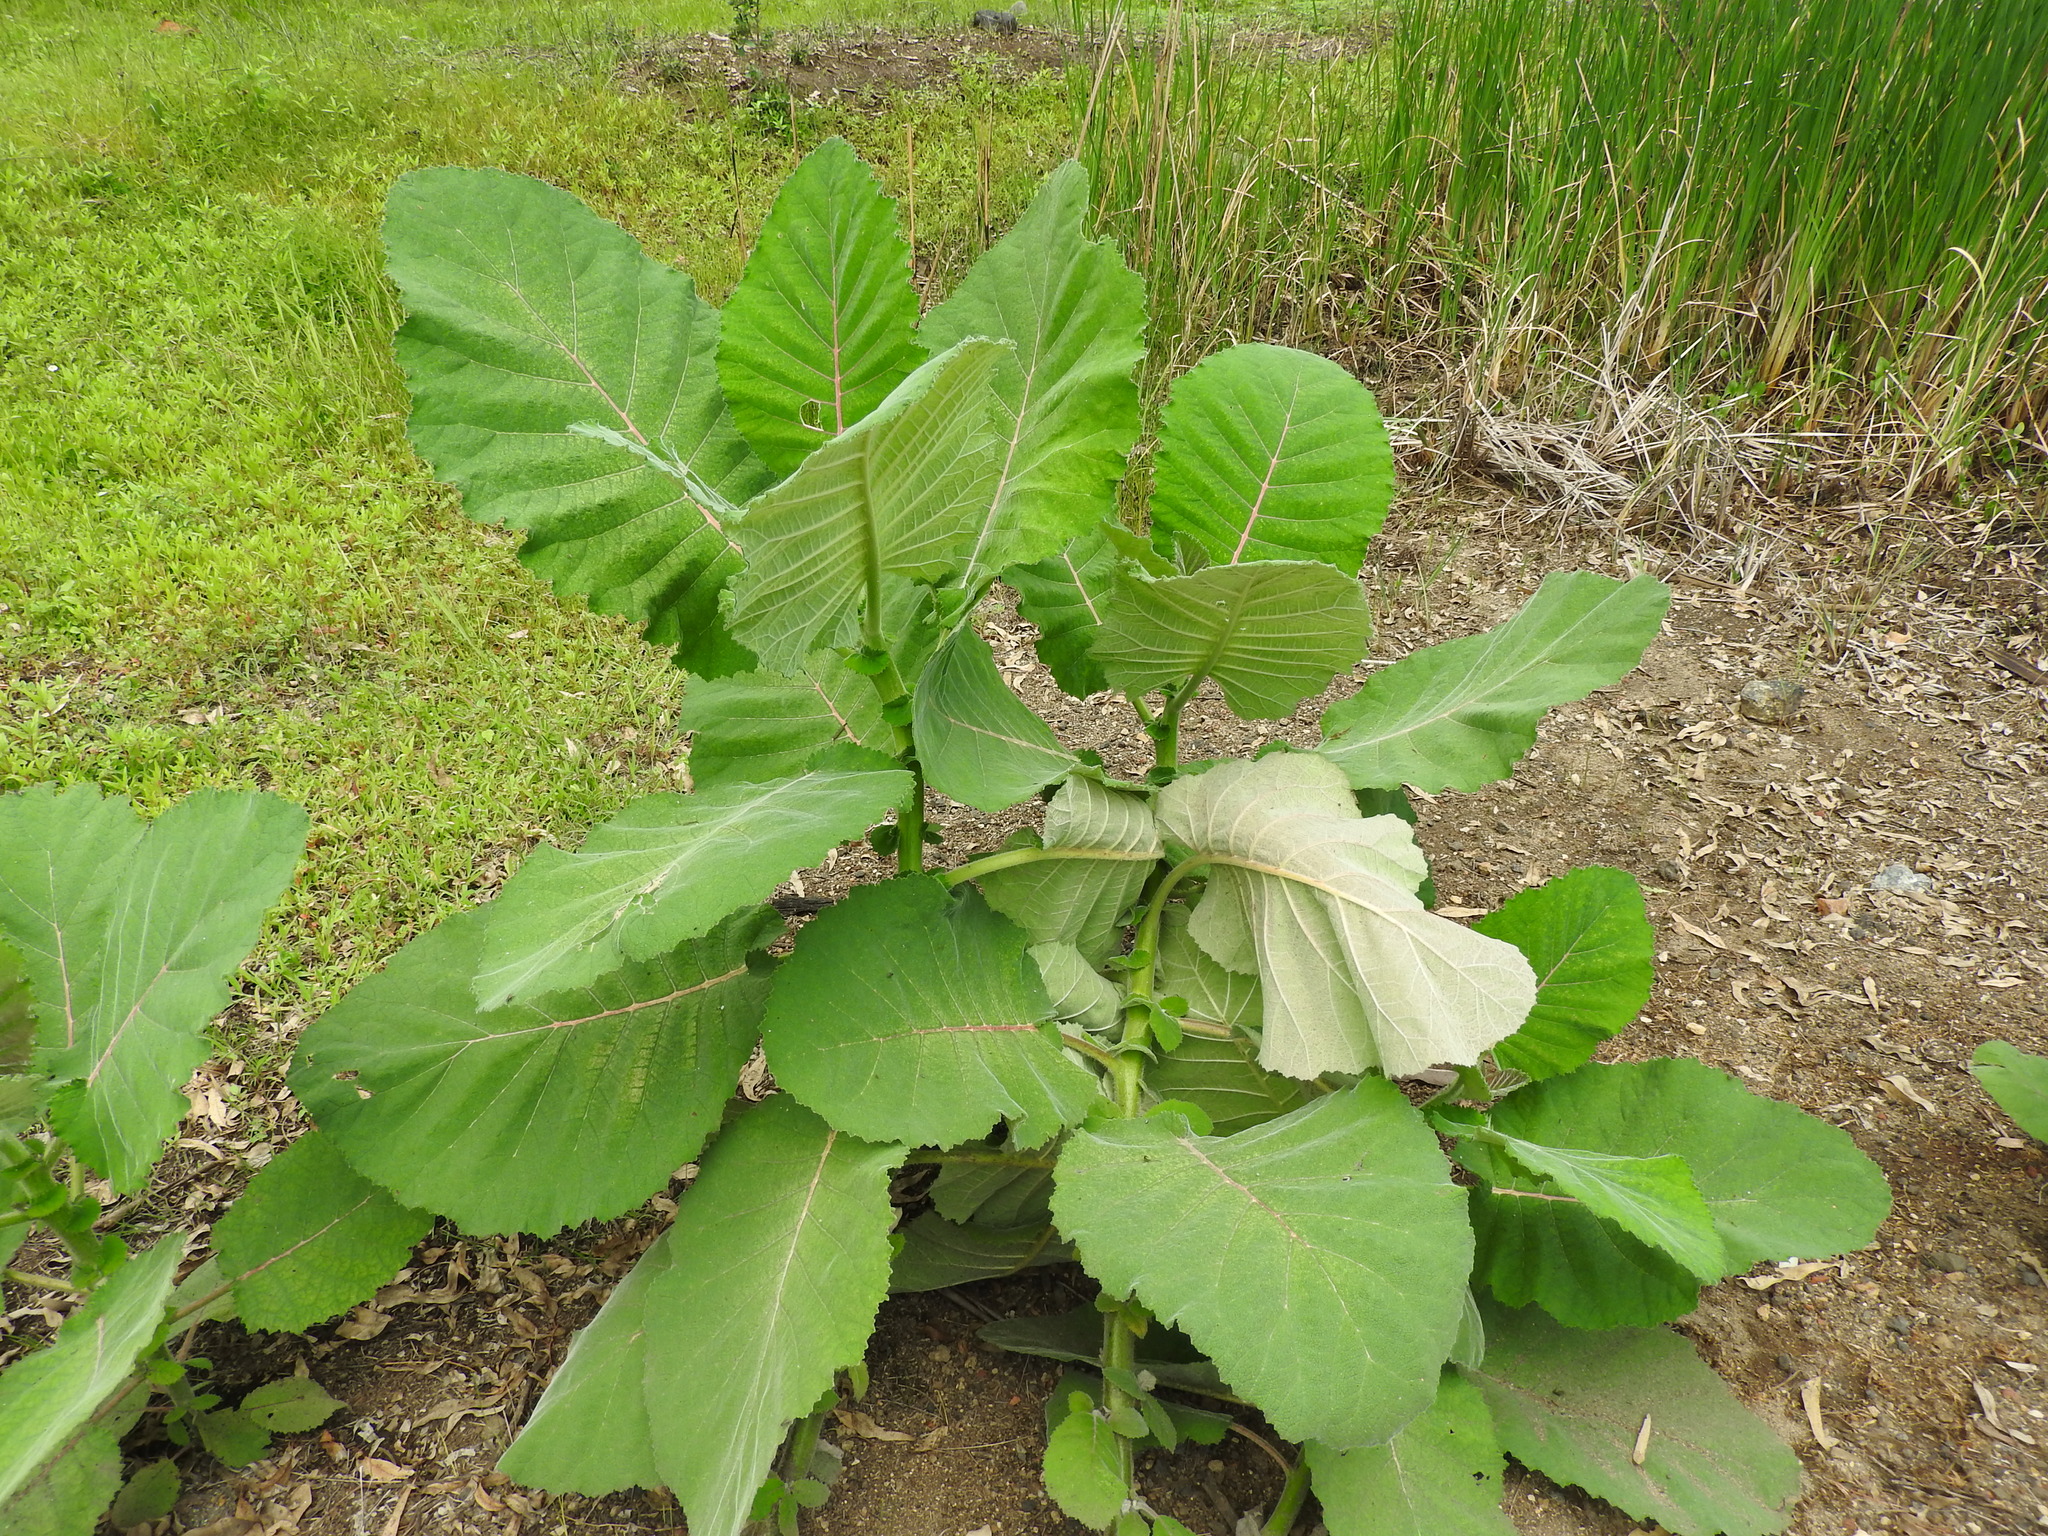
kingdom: Plantae
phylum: Tracheophyta
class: Magnoliopsida
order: Boraginales
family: Namaceae
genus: Wigandia
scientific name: Wigandia urens
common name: Caracus wigandia
